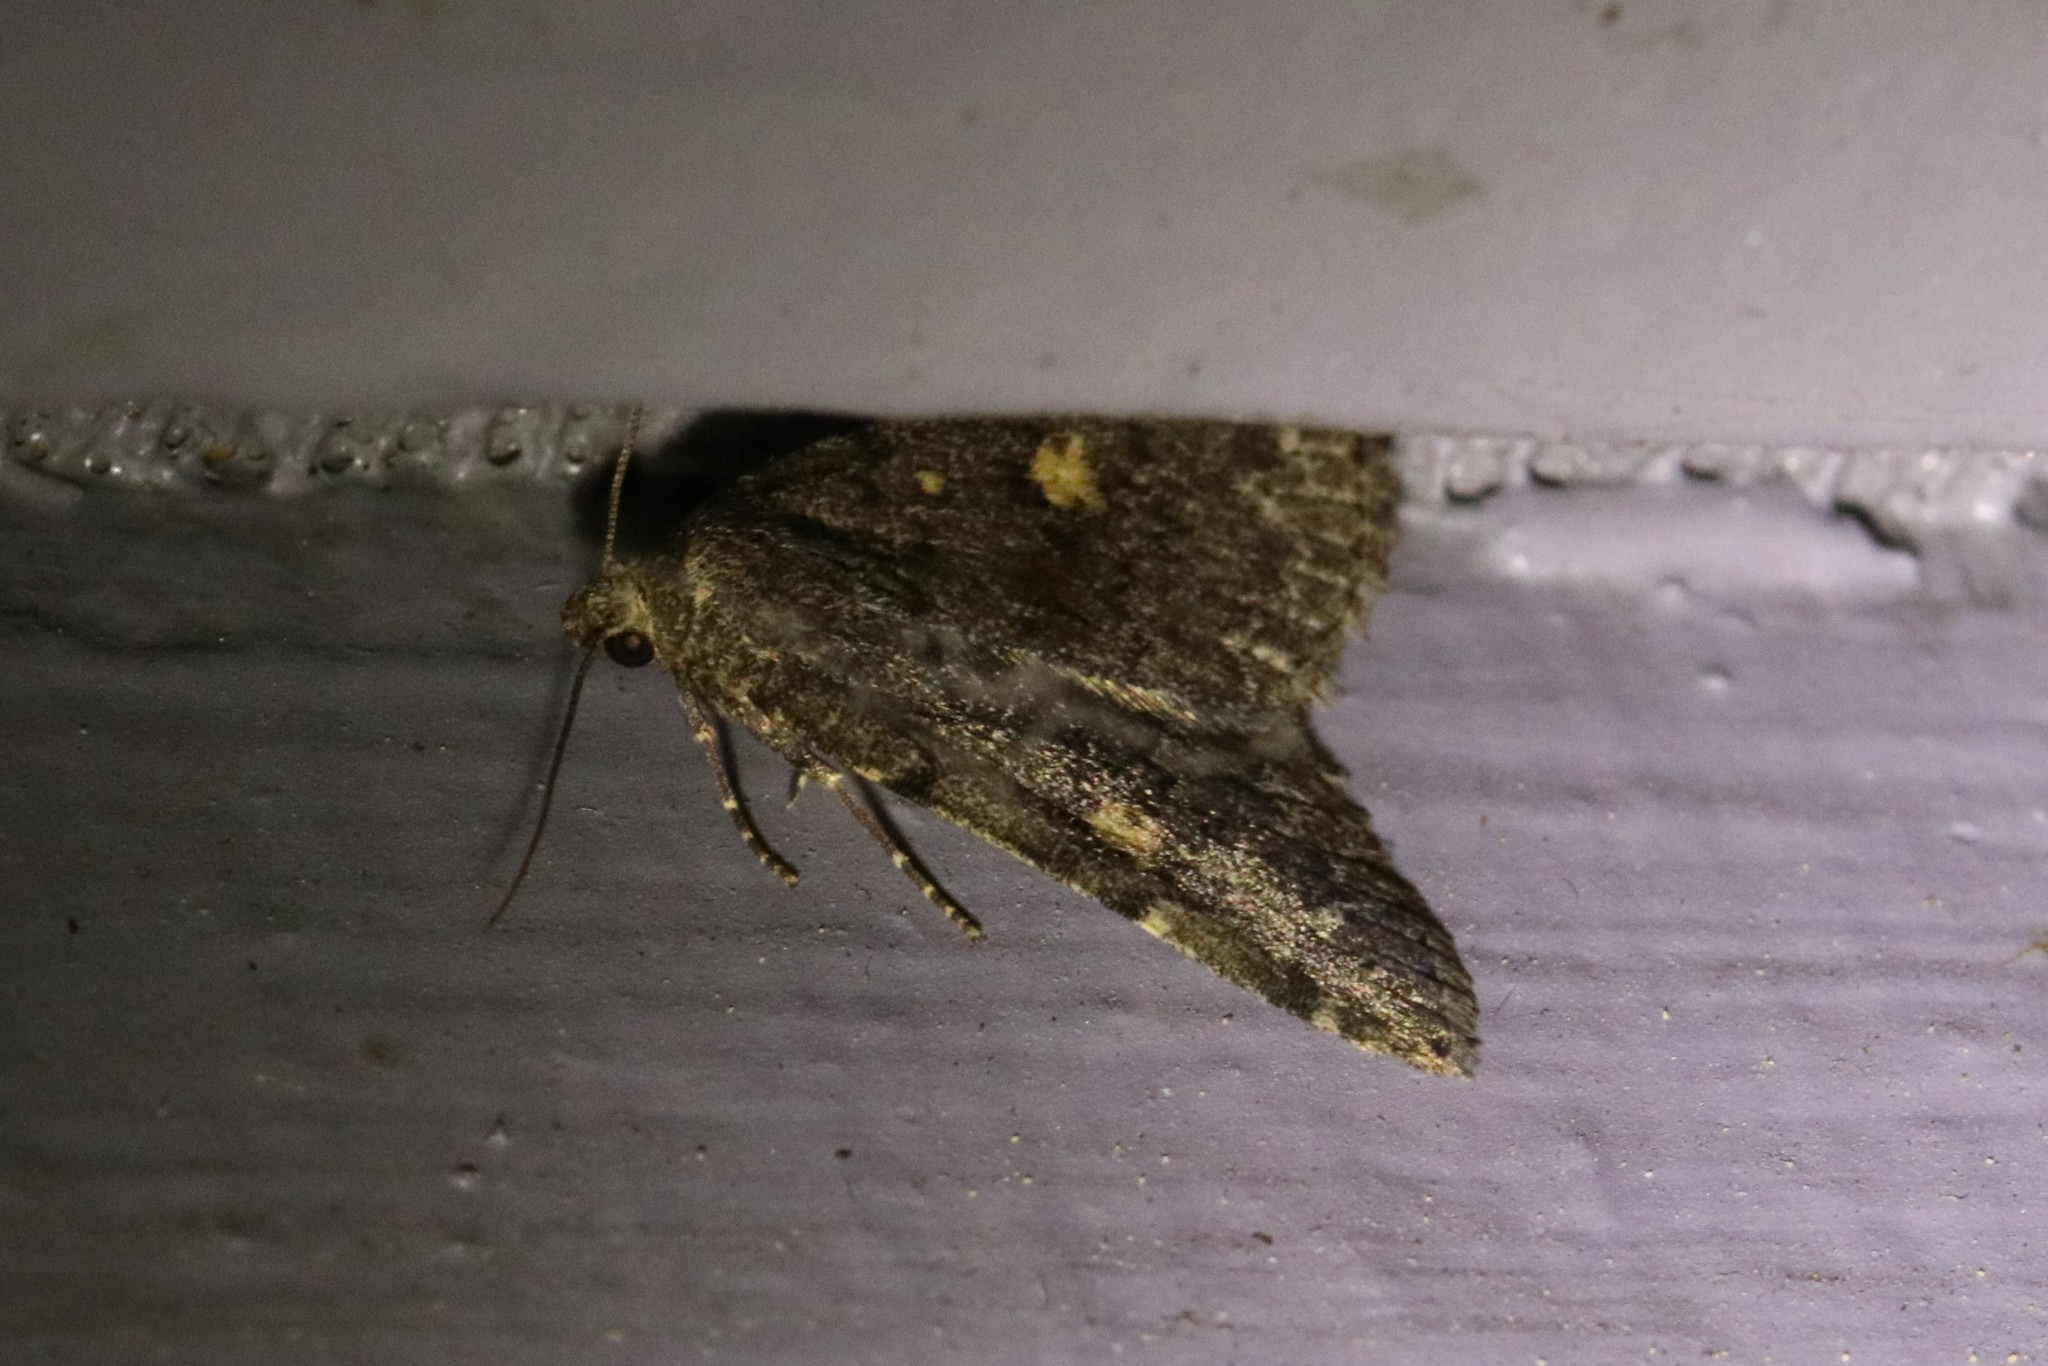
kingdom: Animalia
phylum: Arthropoda
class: Insecta
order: Lepidoptera
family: Erebidae
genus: Idia
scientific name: Idia aemula
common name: Common idia moth
